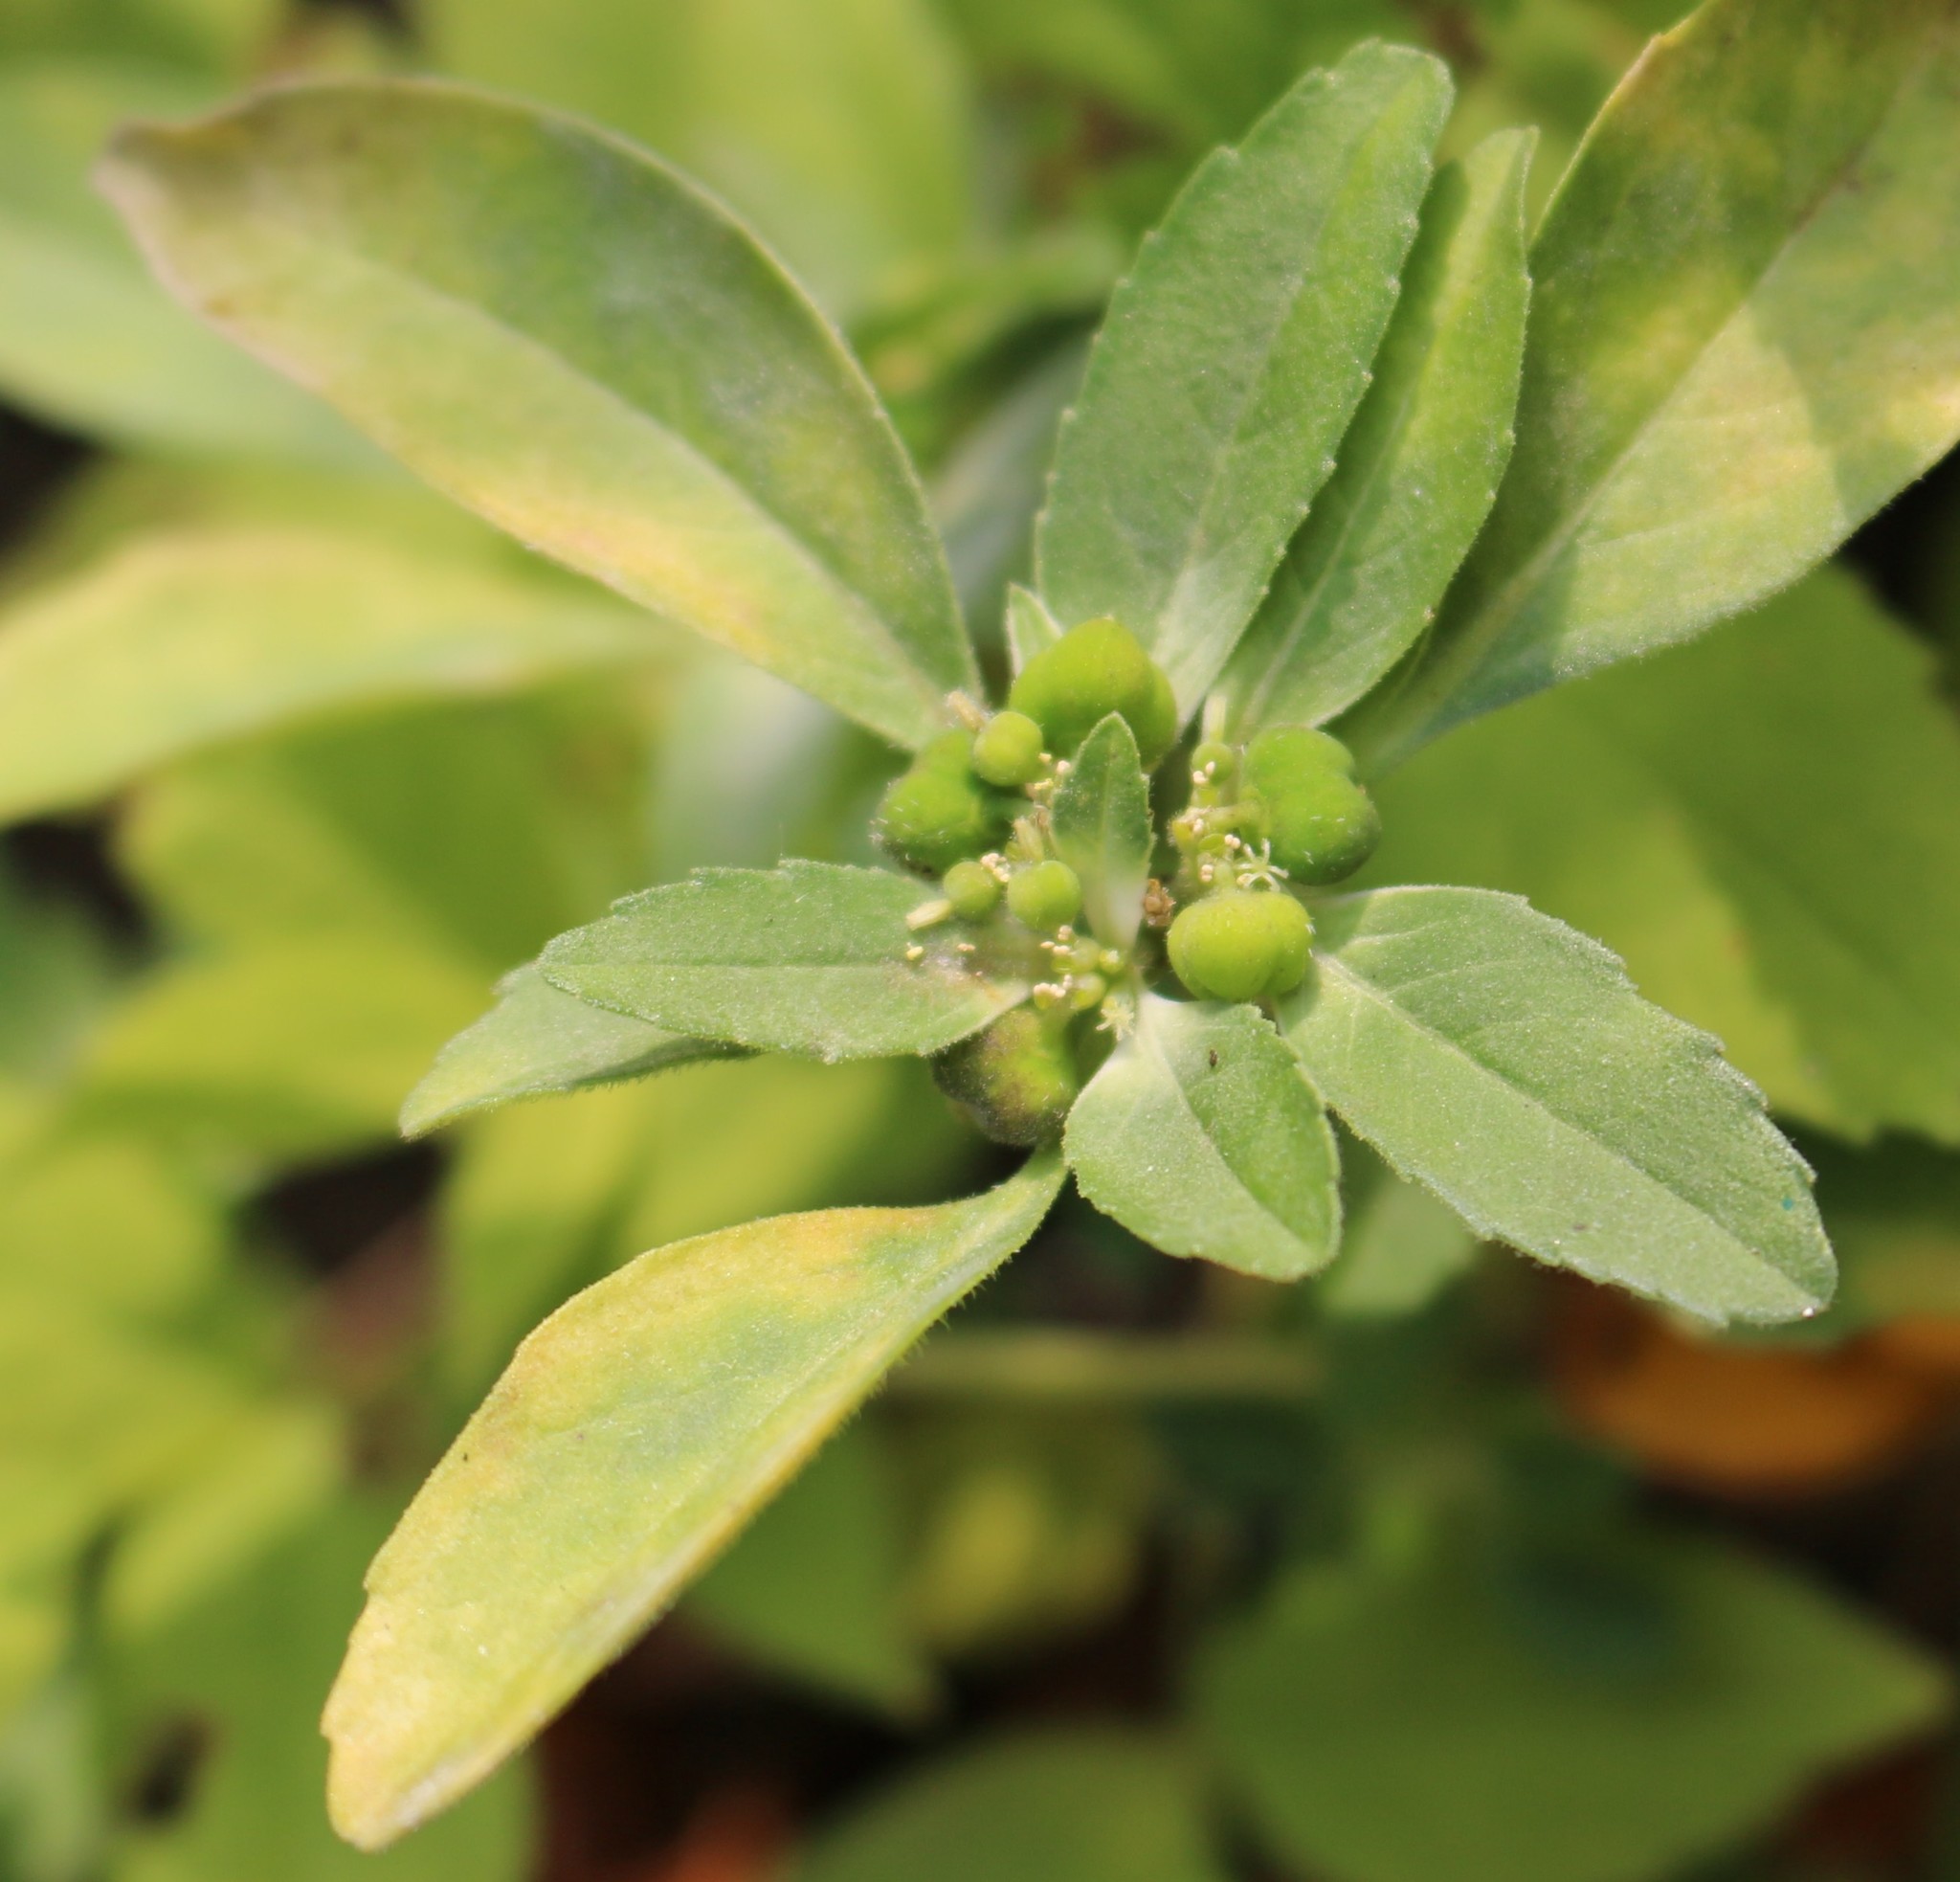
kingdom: Plantae
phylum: Tracheophyta
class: Magnoliopsida
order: Malpighiales
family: Euphorbiaceae
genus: Euphorbia
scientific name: Euphorbia davidii
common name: David's spurge
